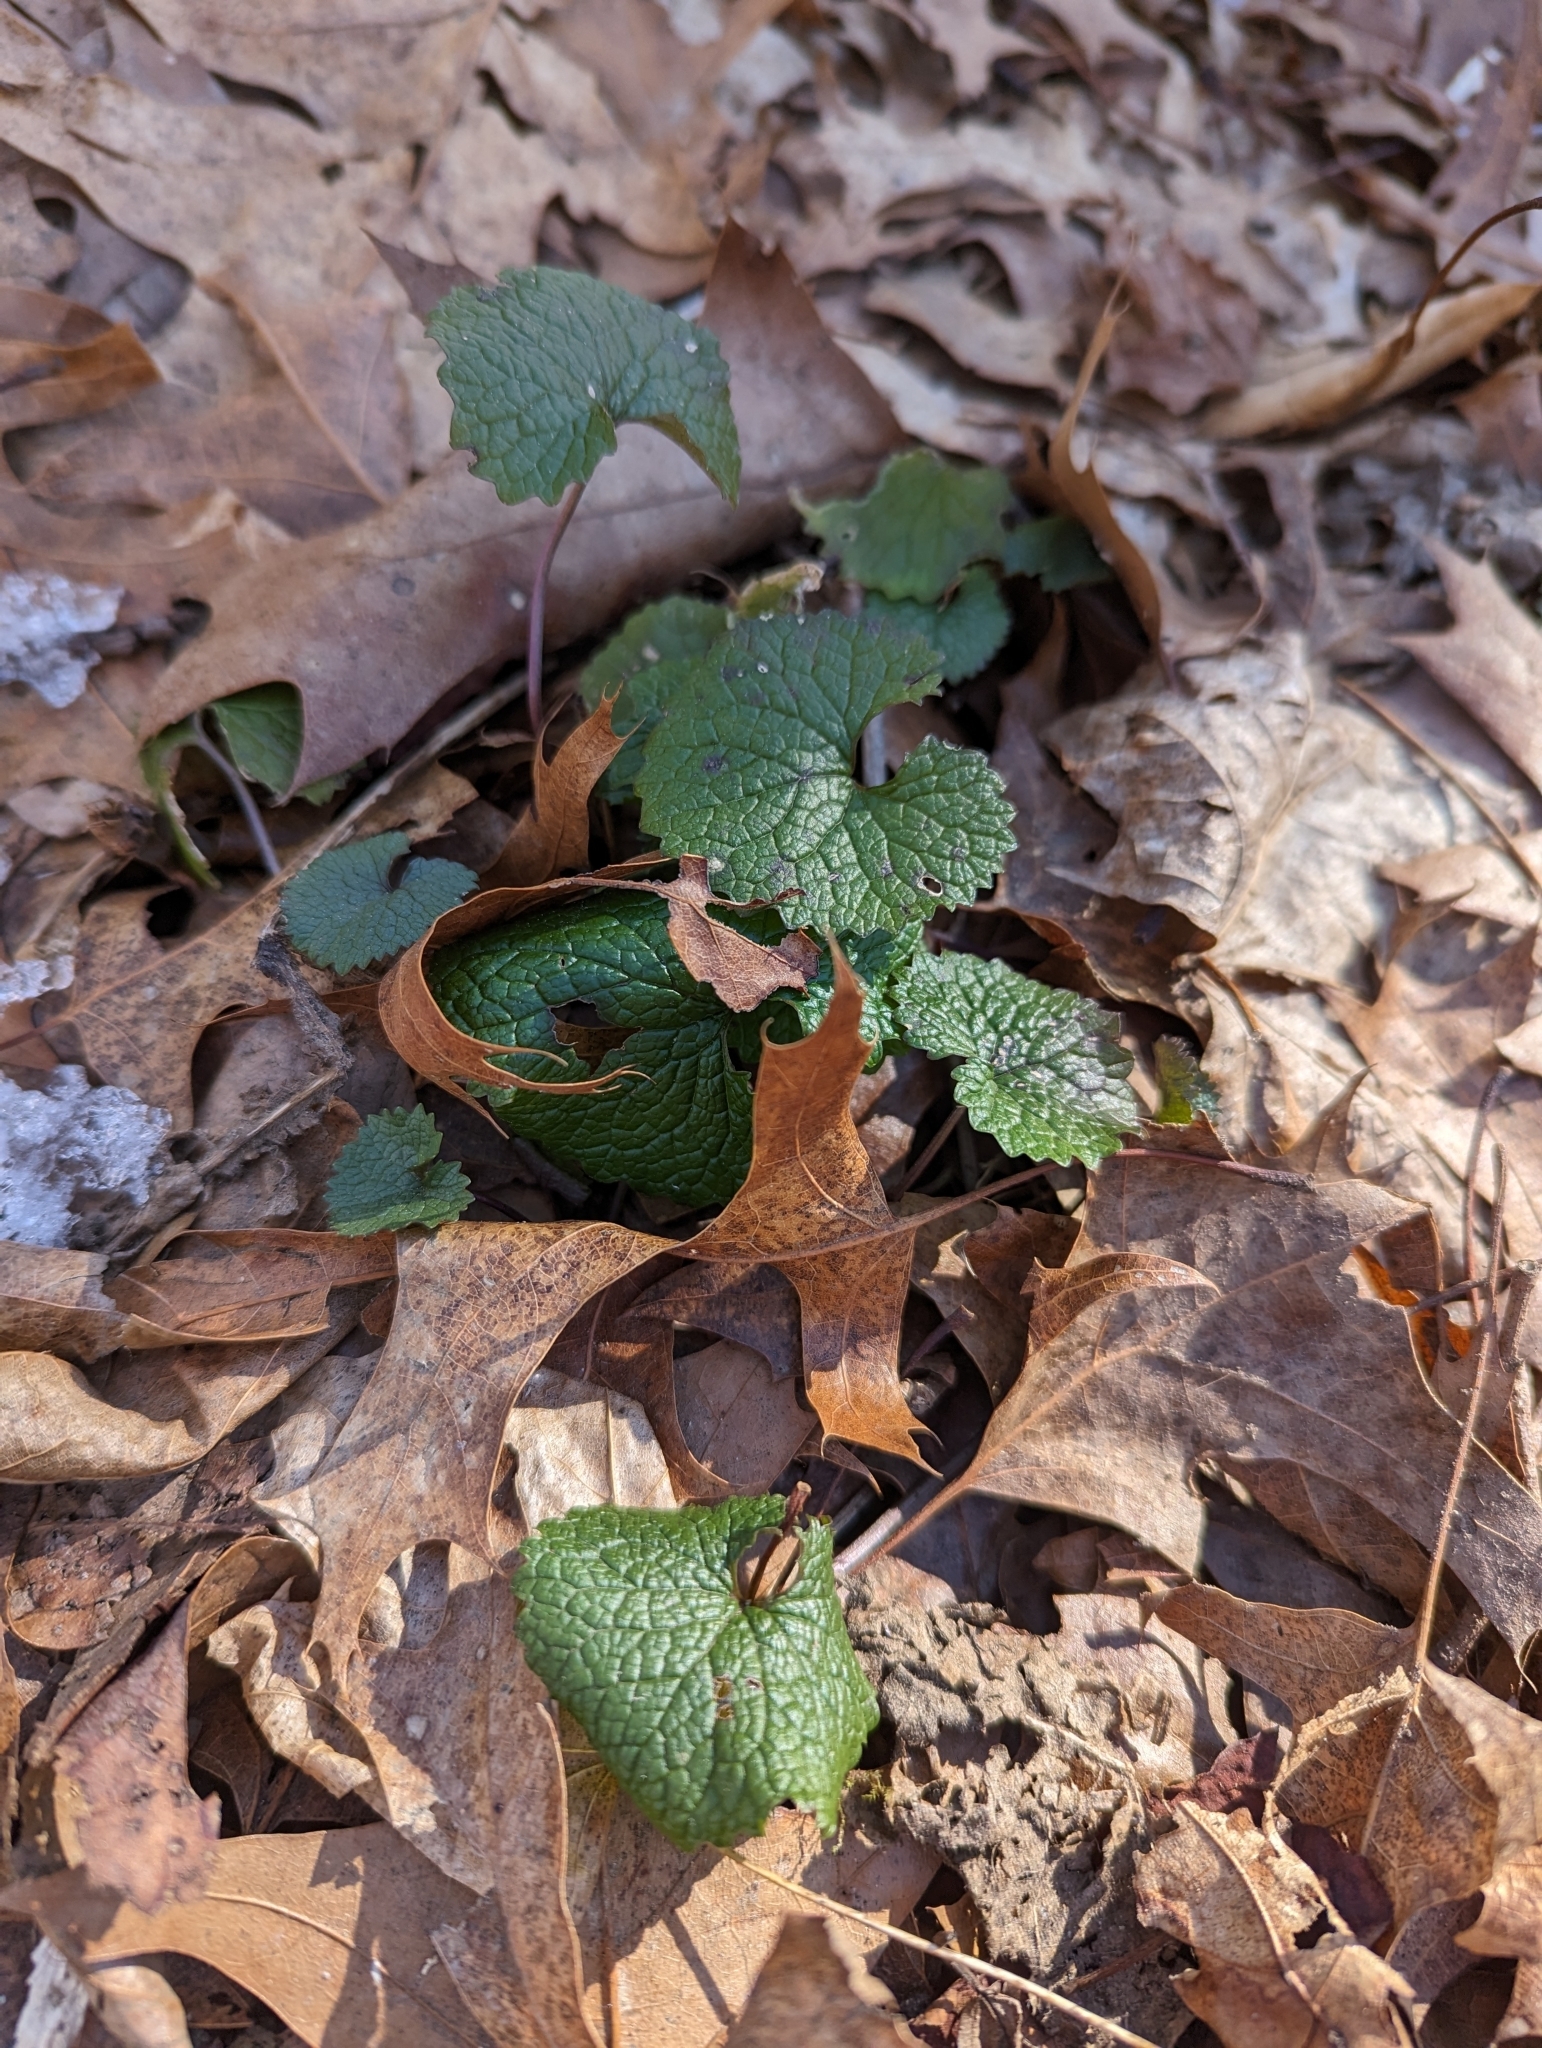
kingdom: Plantae
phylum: Tracheophyta
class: Magnoliopsida
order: Brassicales
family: Brassicaceae
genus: Alliaria
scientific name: Alliaria petiolata
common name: Garlic mustard
